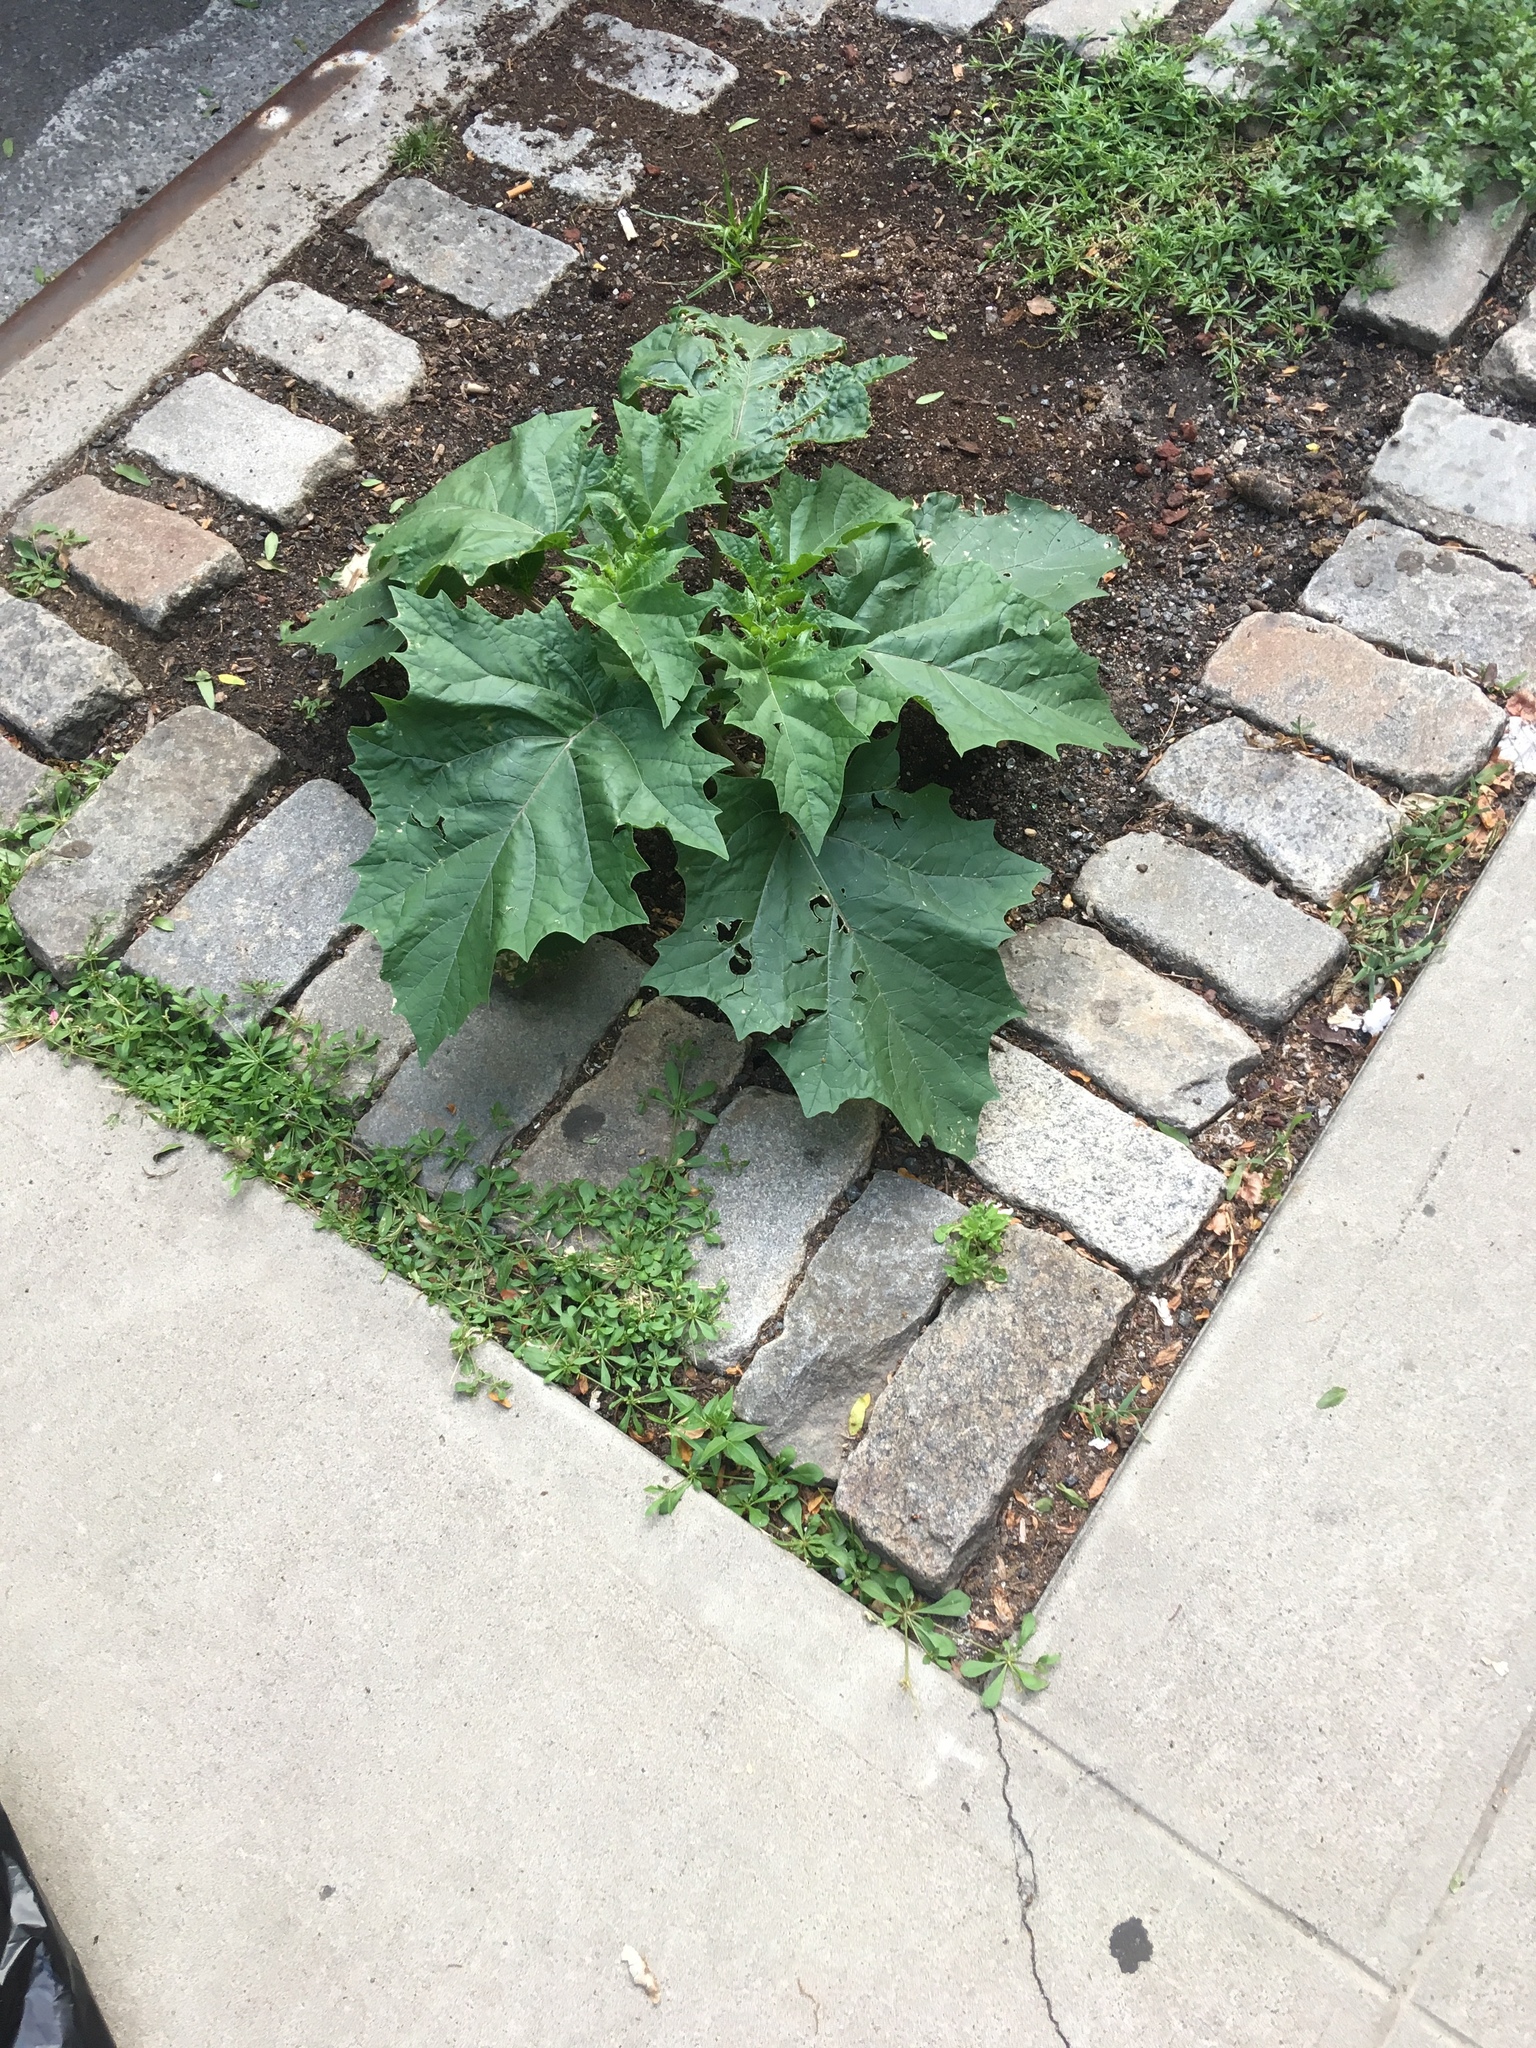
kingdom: Plantae
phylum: Tracheophyta
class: Magnoliopsida
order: Solanales
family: Solanaceae
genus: Datura
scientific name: Datura stramonium
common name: Thorn-apple
